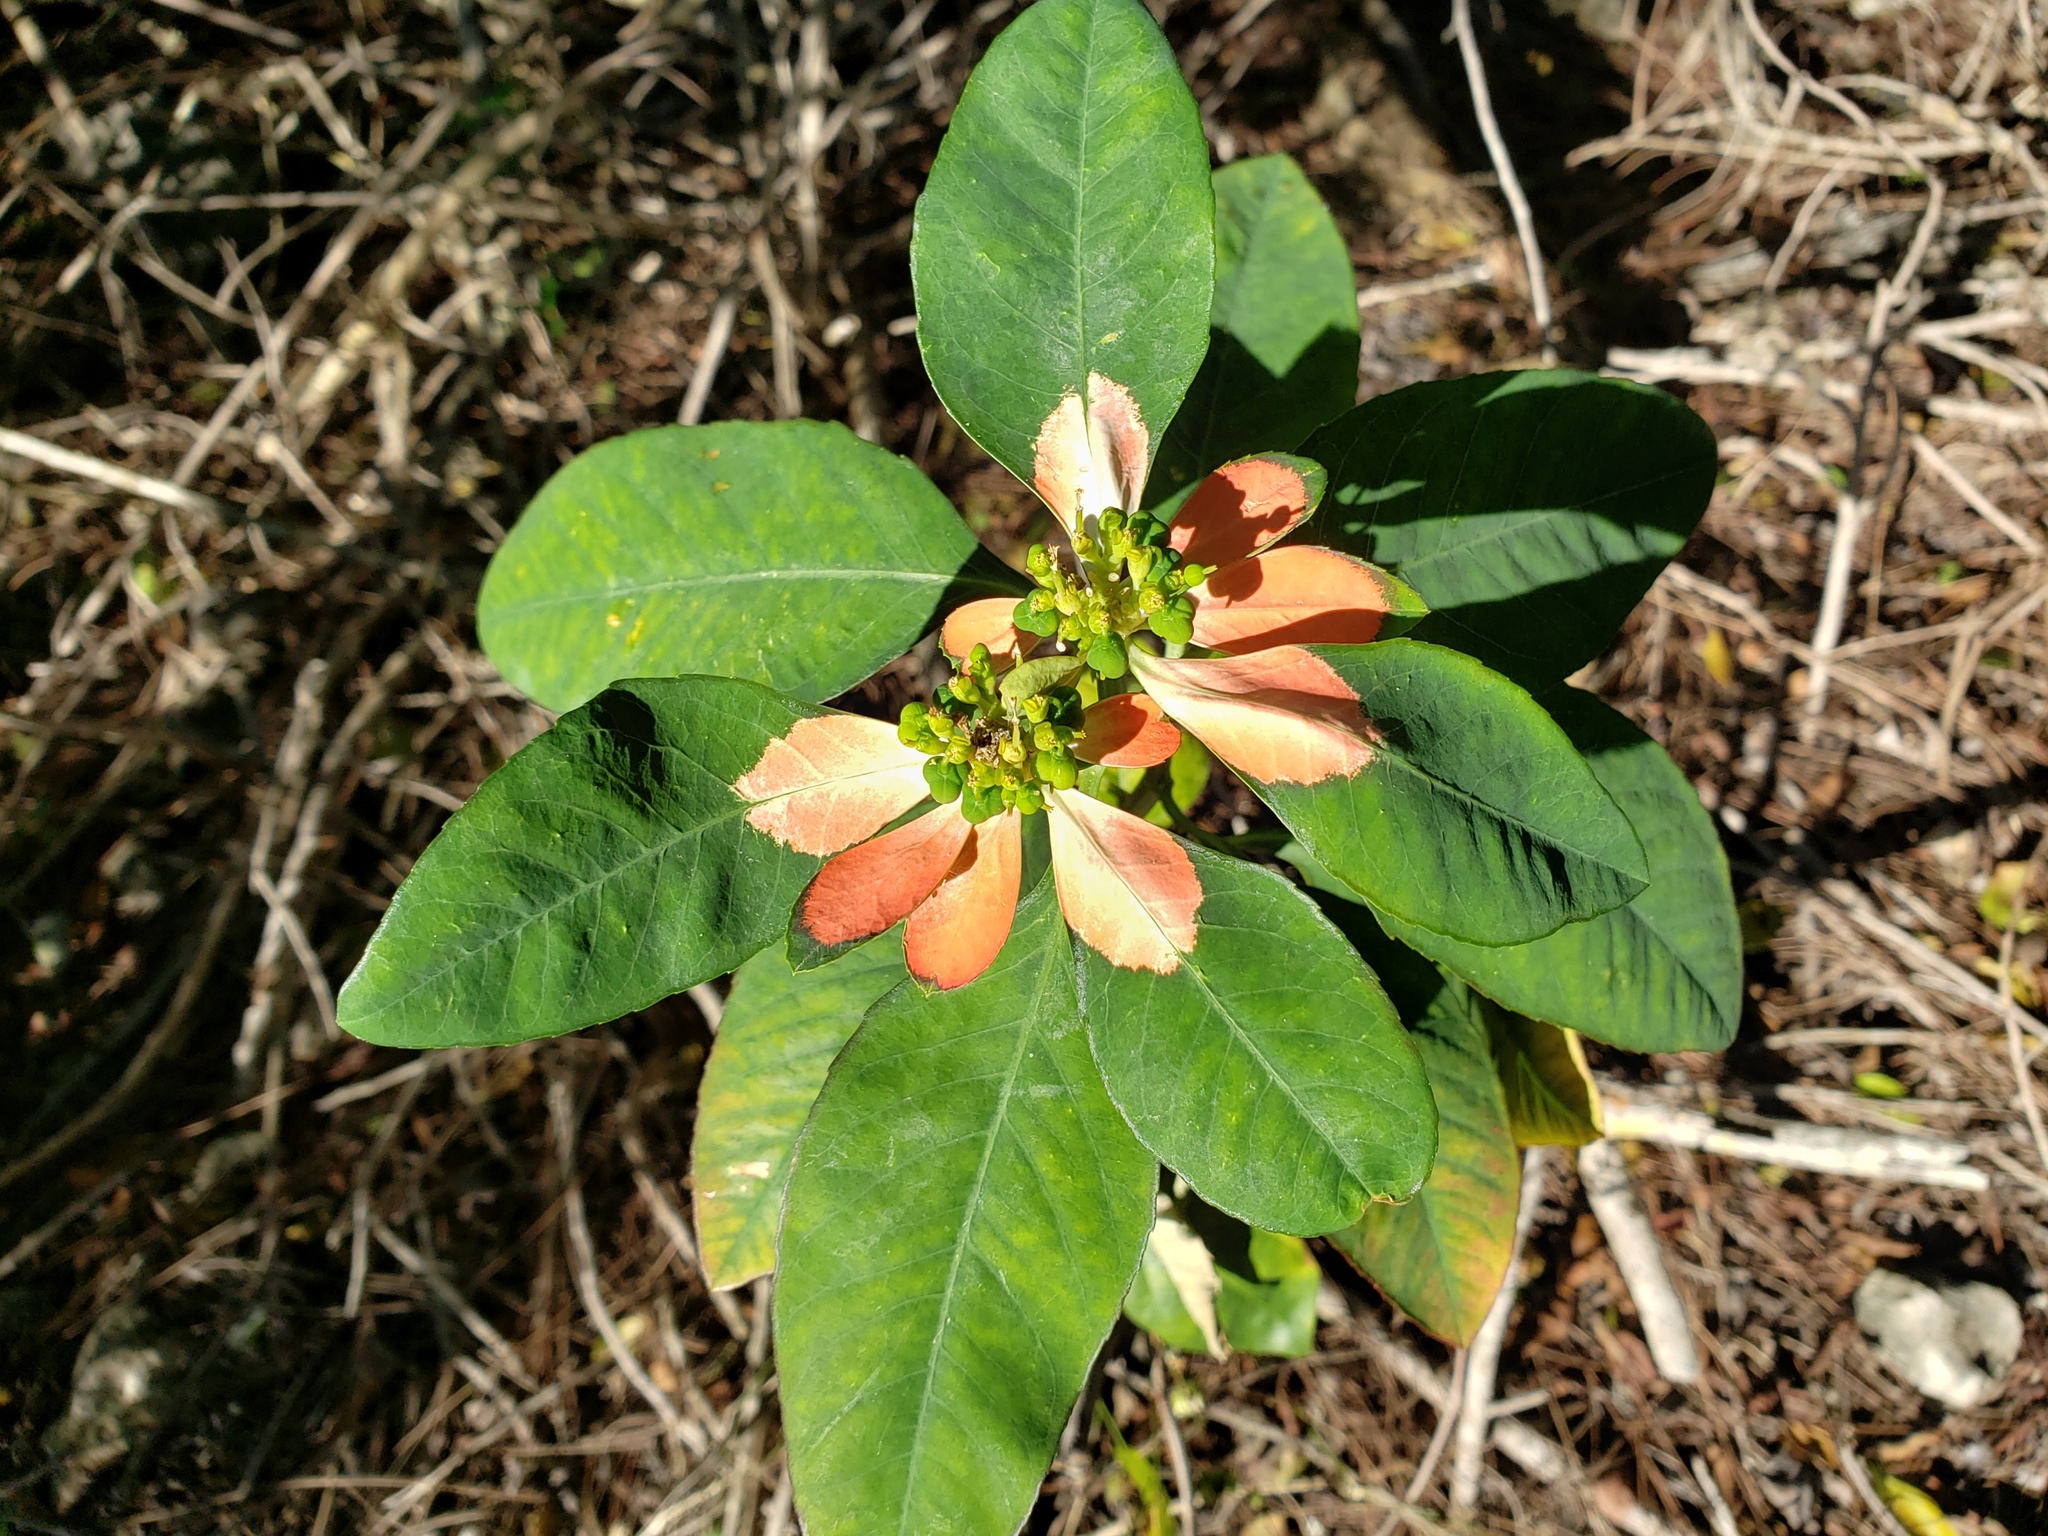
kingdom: Plantae
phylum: Tracheophyta
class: Magnoliopsida
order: Malpighiales
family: Euphorbiaceae
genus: Euphorbia
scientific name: Euphorbia heterophylla
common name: Mexican fireplant
